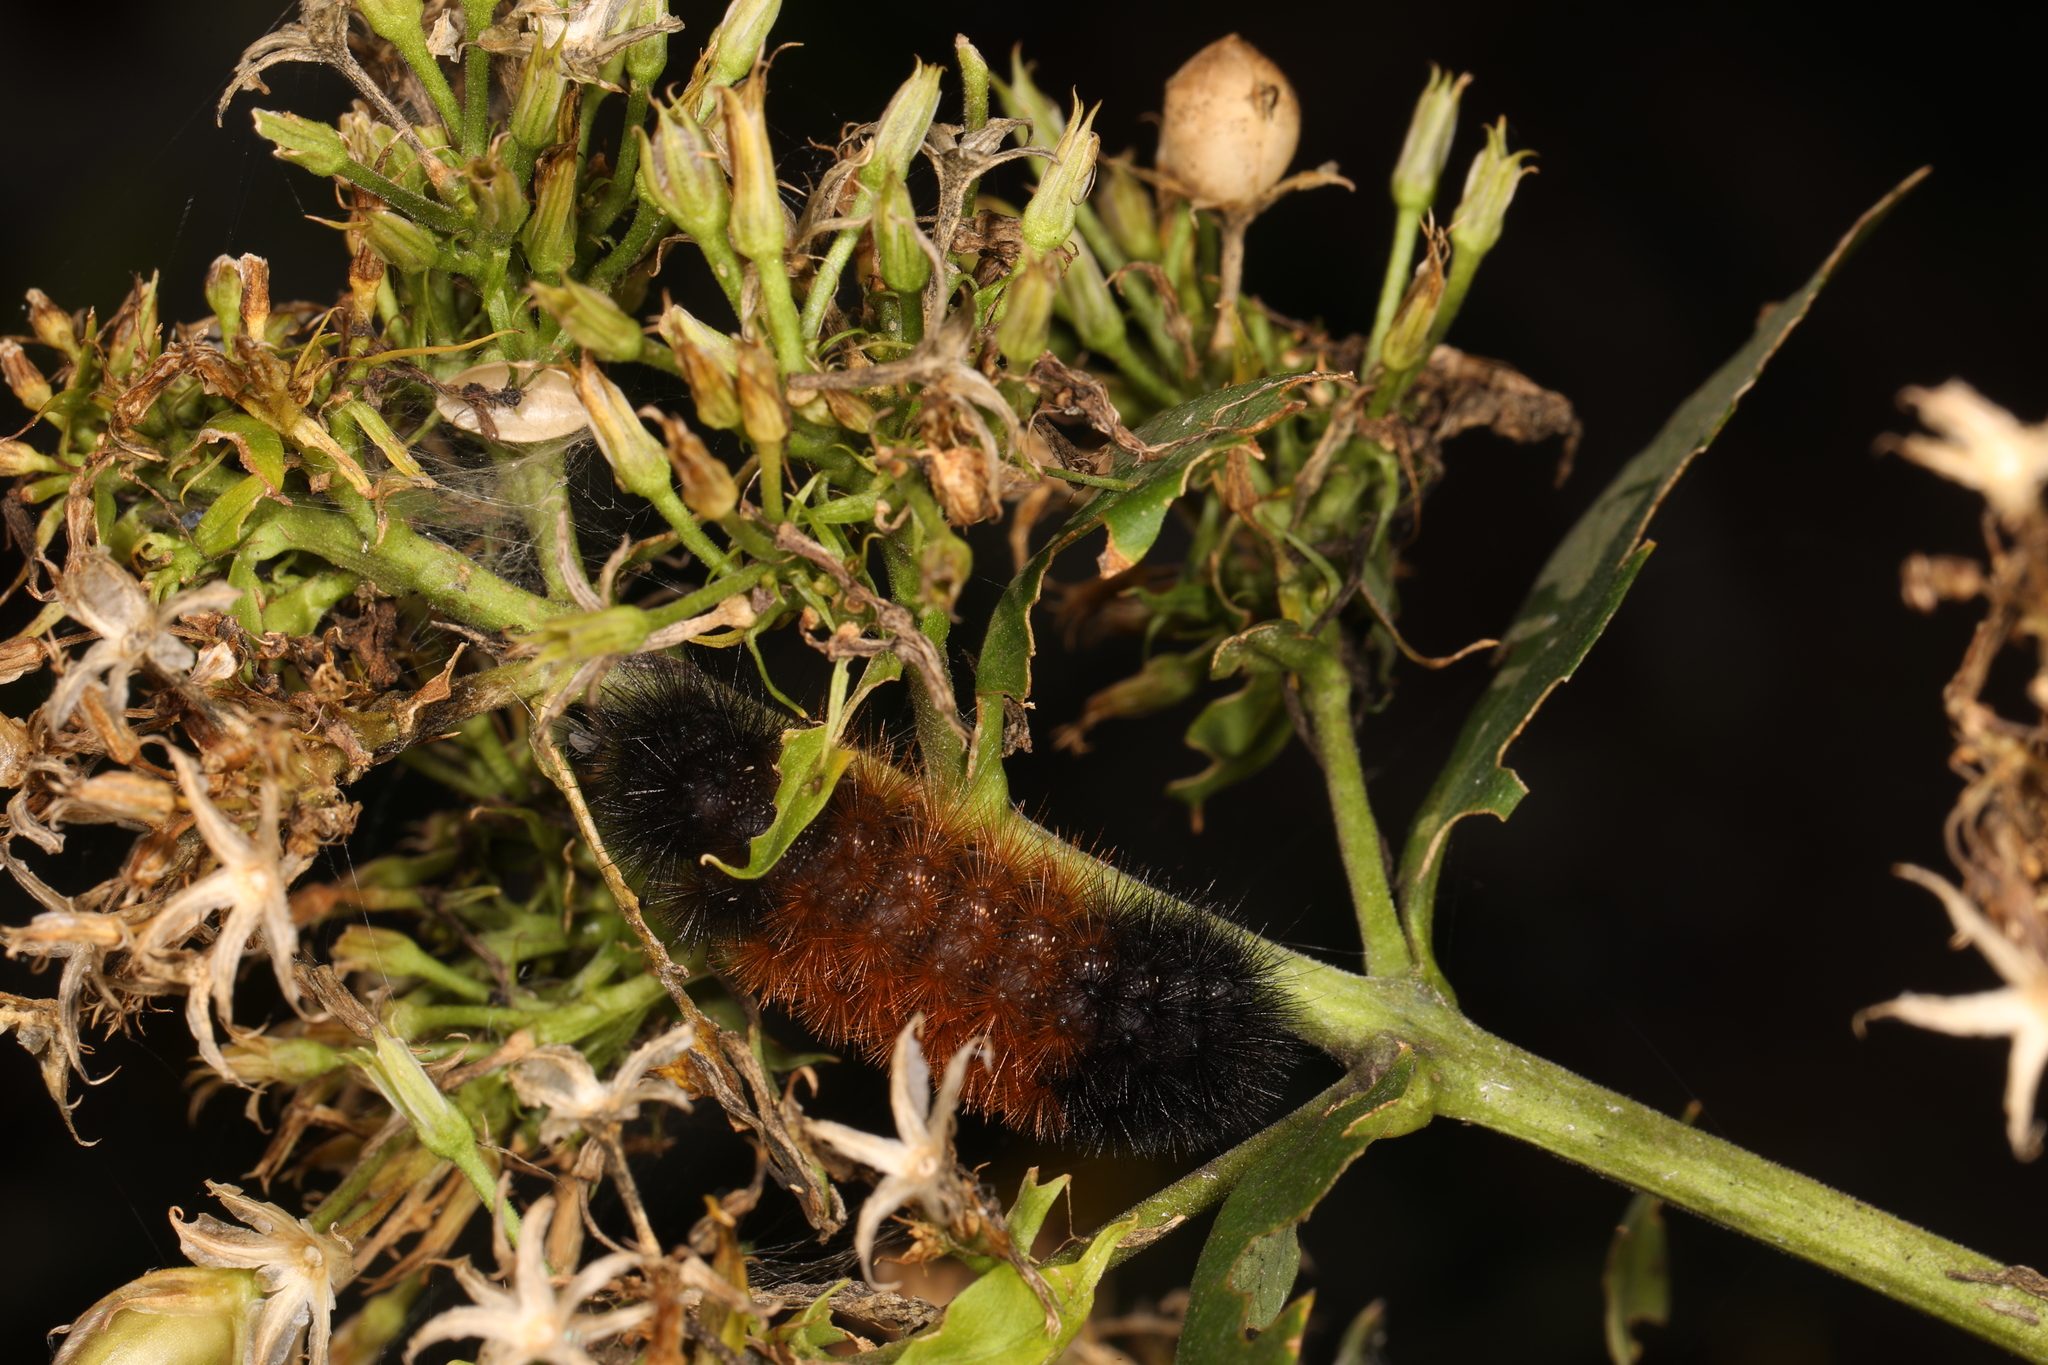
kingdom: Animalia
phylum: Arthropoda
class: Insecta
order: Lepidoptera
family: Erebidae
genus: Pyrrharctia
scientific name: Pyrrharctia isabella
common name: Isabella tiger moth
